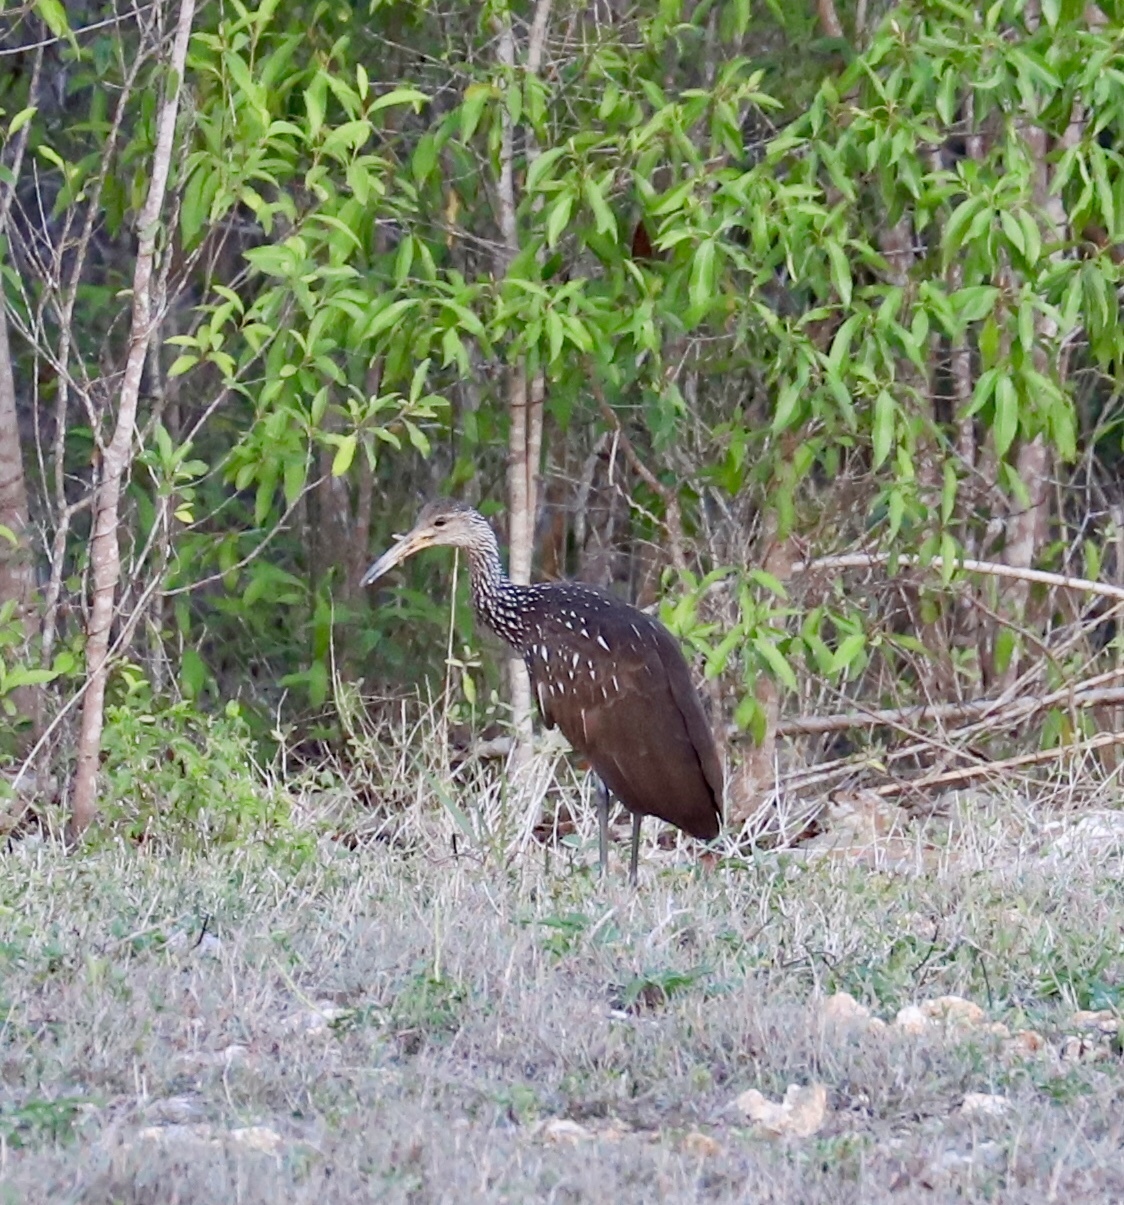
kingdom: Animalia
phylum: Chordata
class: Aves
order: Gruiformes
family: Aramidae
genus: Aramus
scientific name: Aramus guarauna
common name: Limpkin
